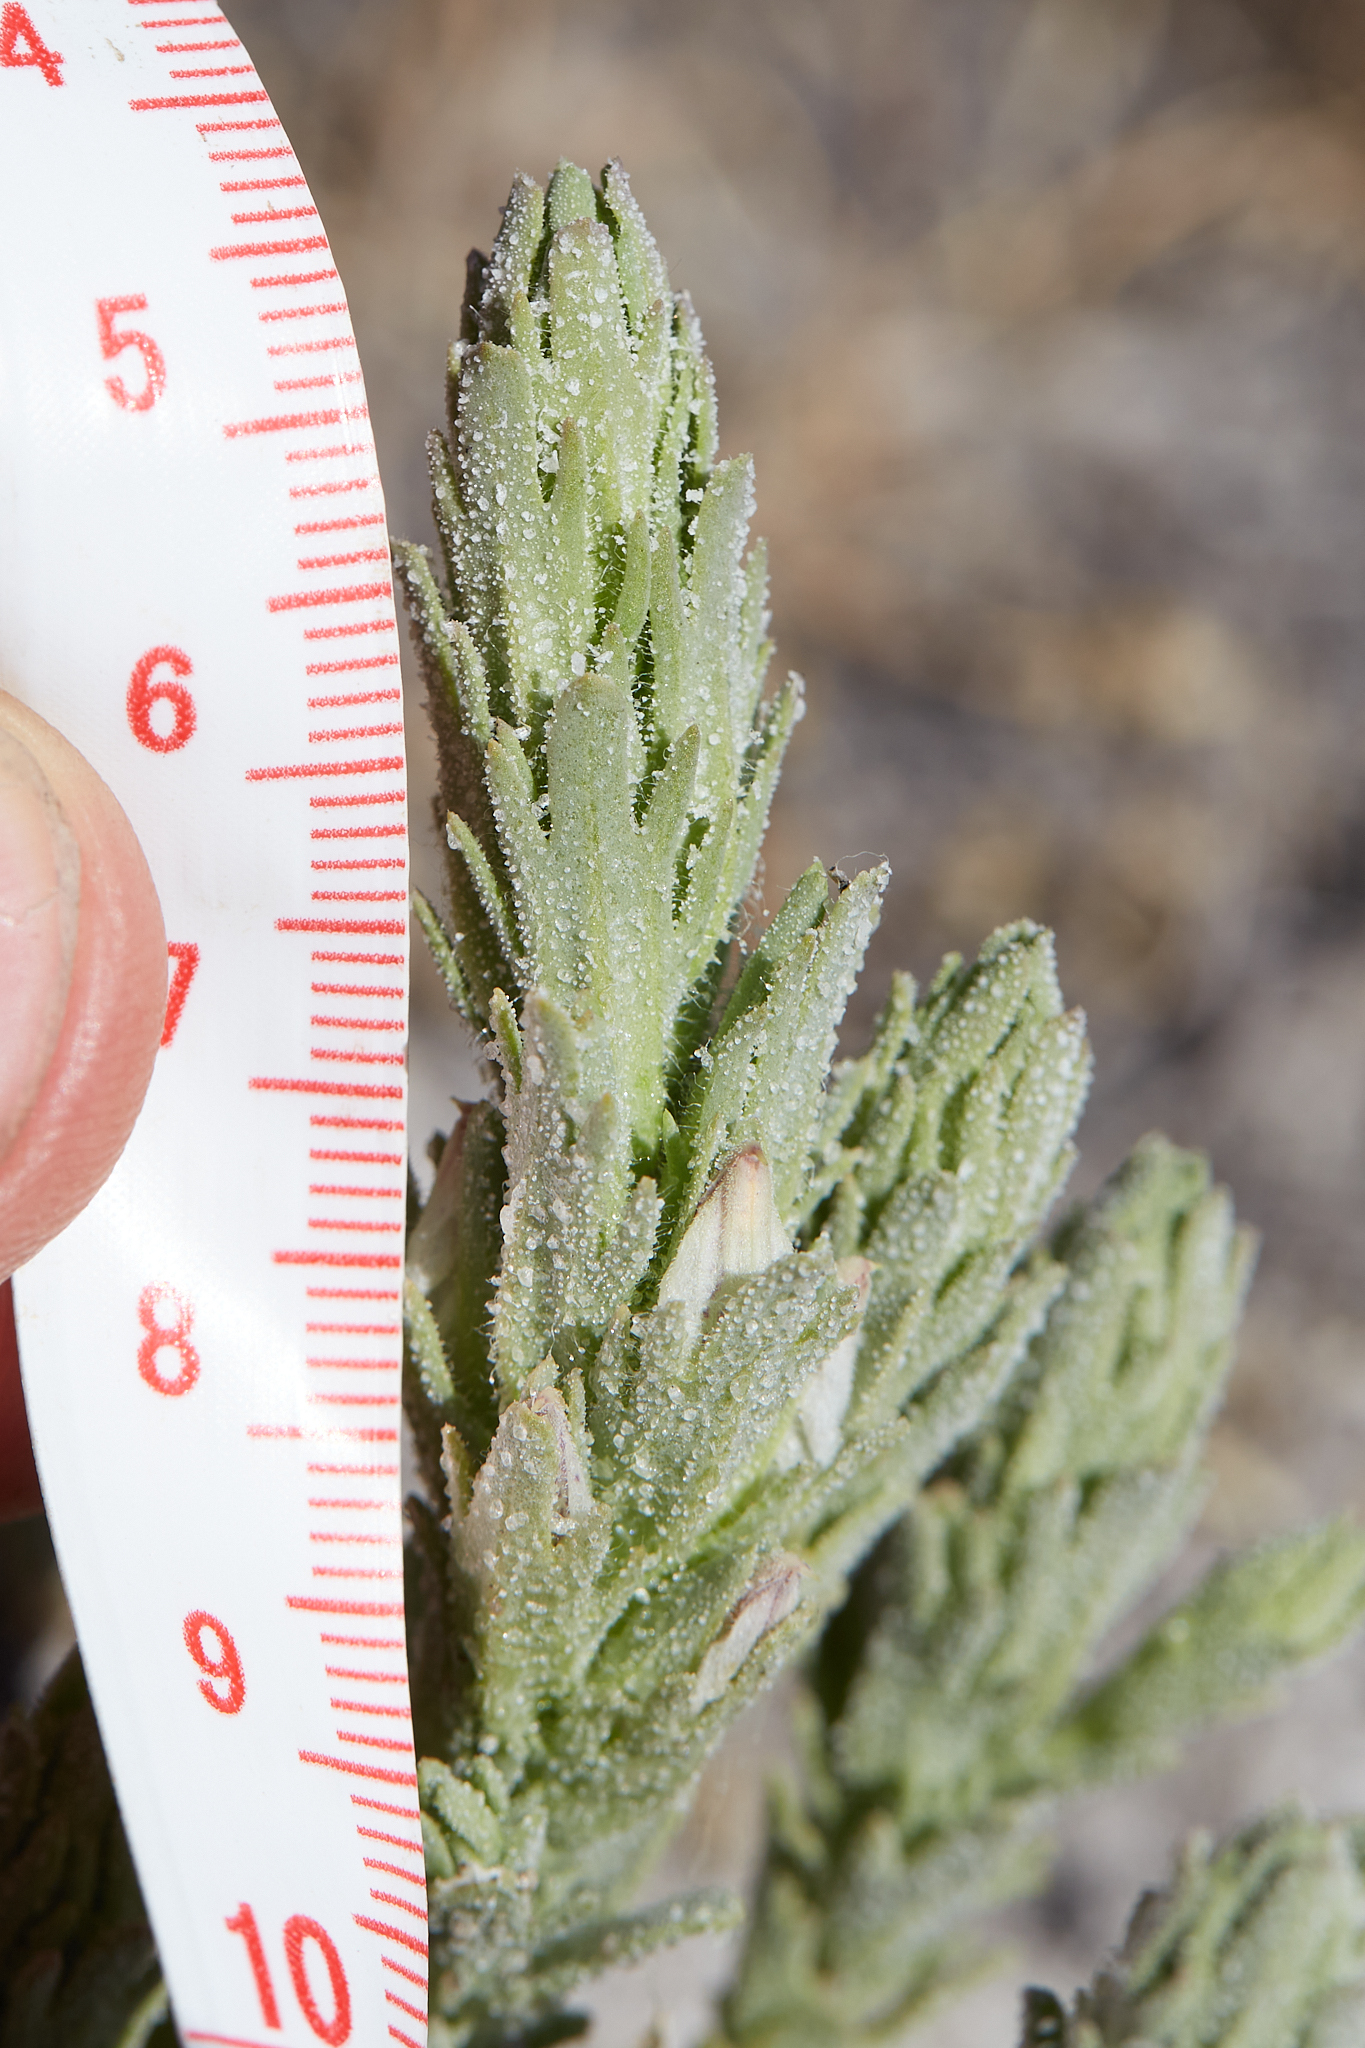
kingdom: Plantae
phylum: Tracheophyta
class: Magnoliopsida
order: Lamiales
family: Orobanchaceae
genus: Chloropyron
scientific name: Chloropyron palmatum
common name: Palmate salty bird's-beak
